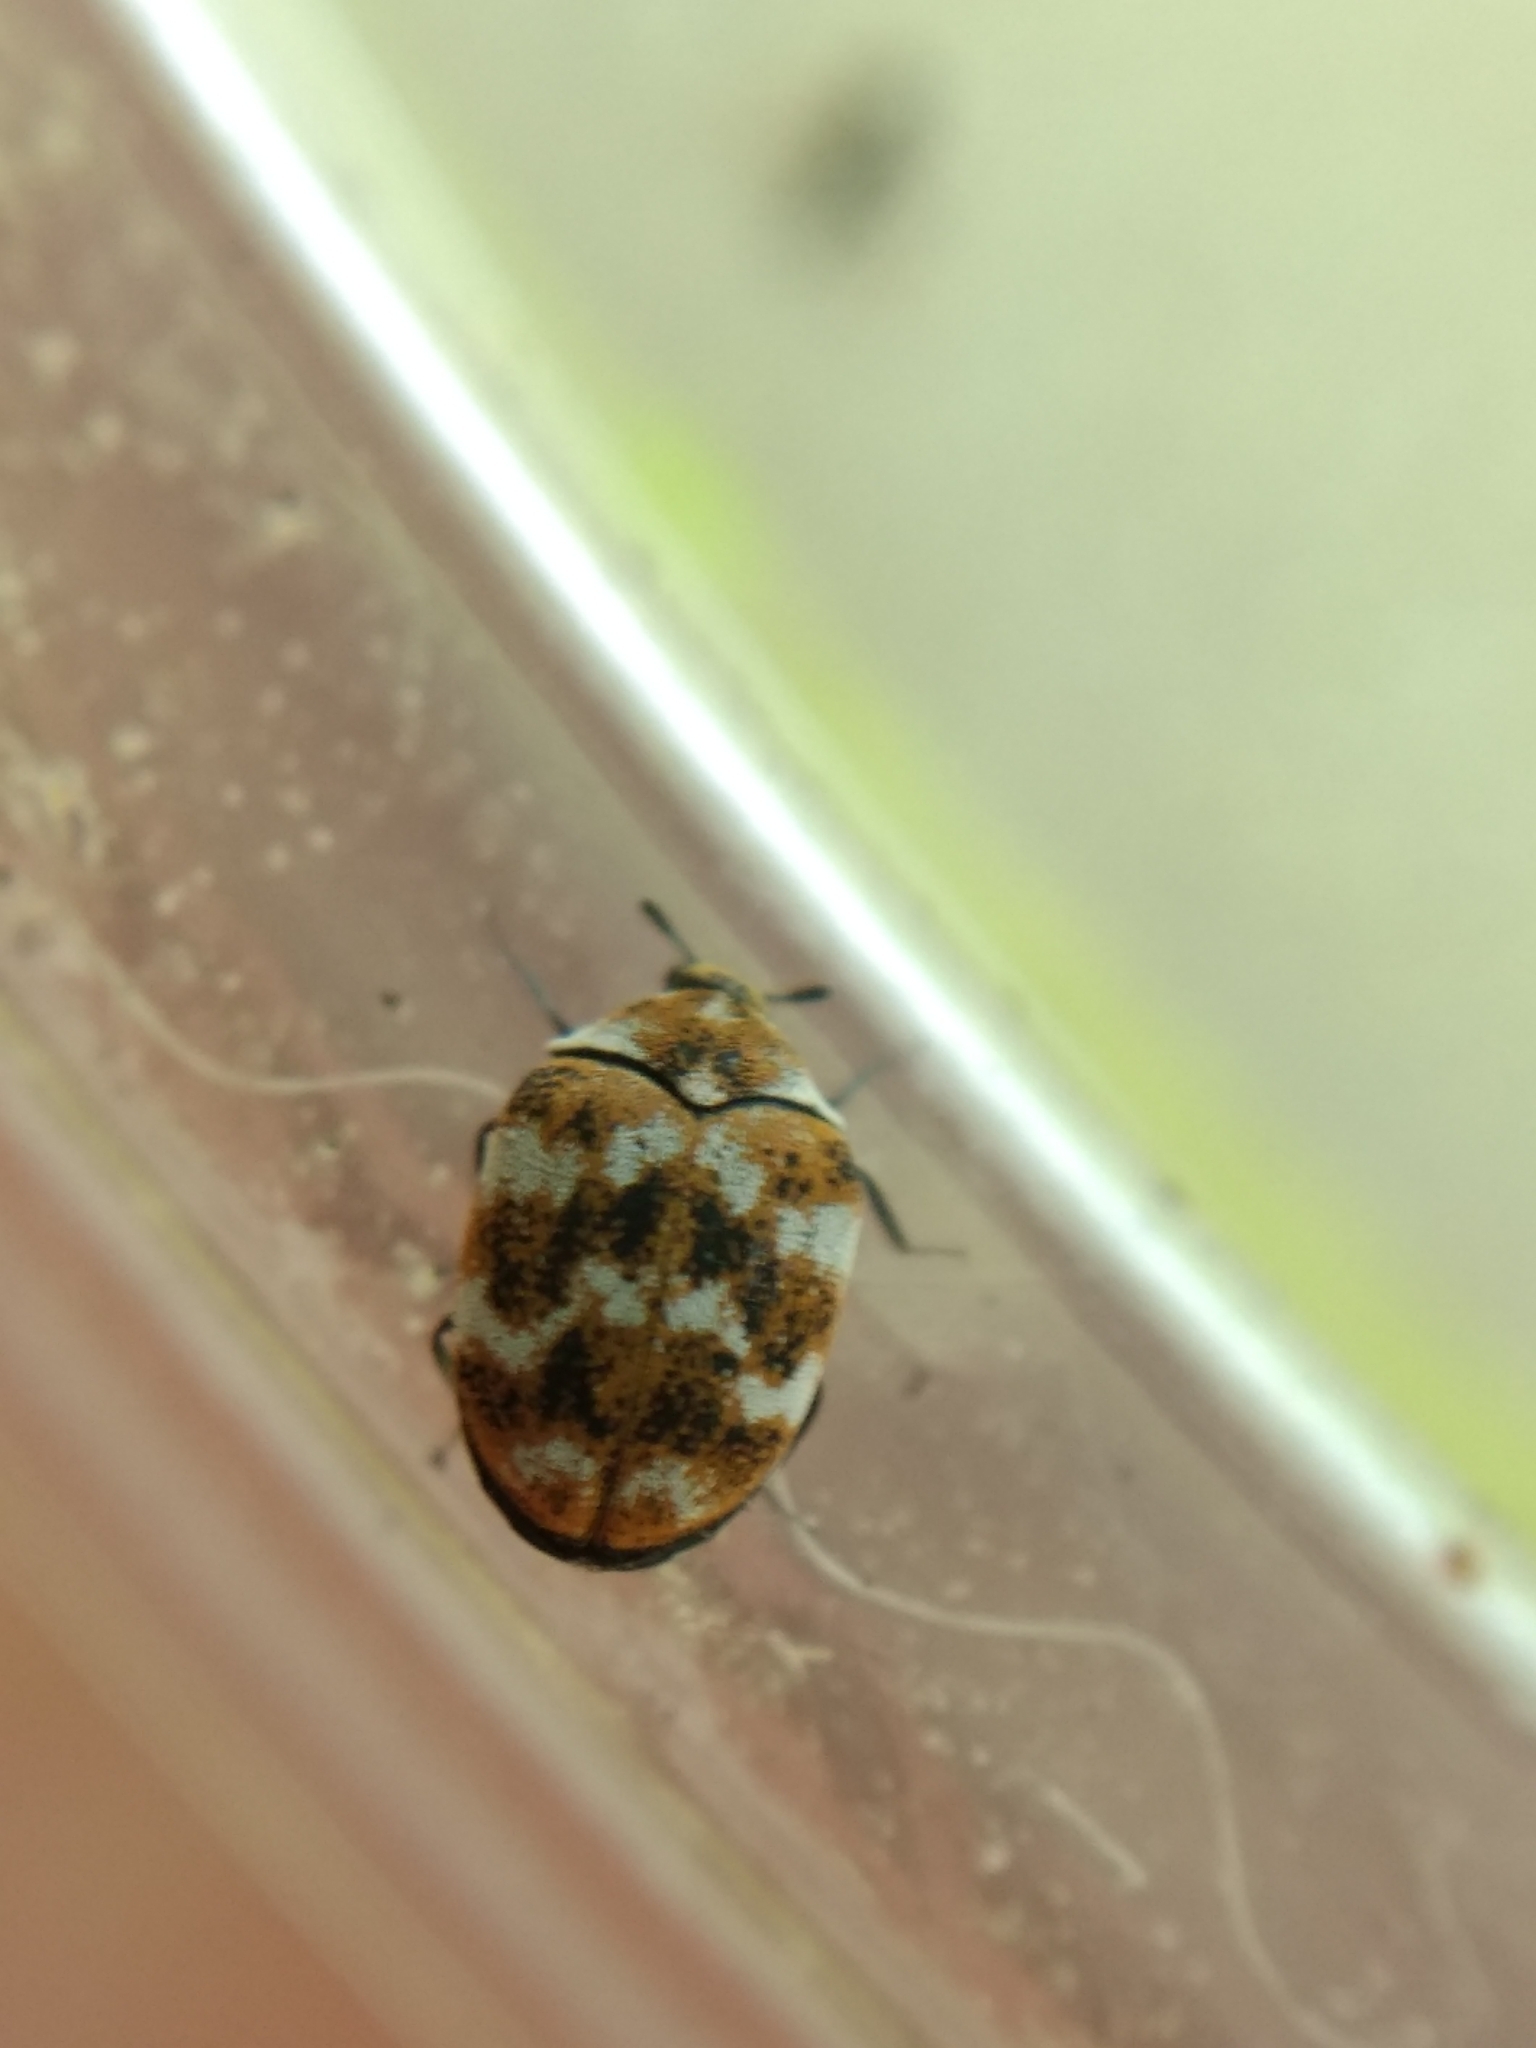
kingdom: Animalia
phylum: Arthropoda
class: Insecta
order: Coleoptera
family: Dermestidae
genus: Anthrenus
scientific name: Anthrenus verbasci
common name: Varied carpet beetle
